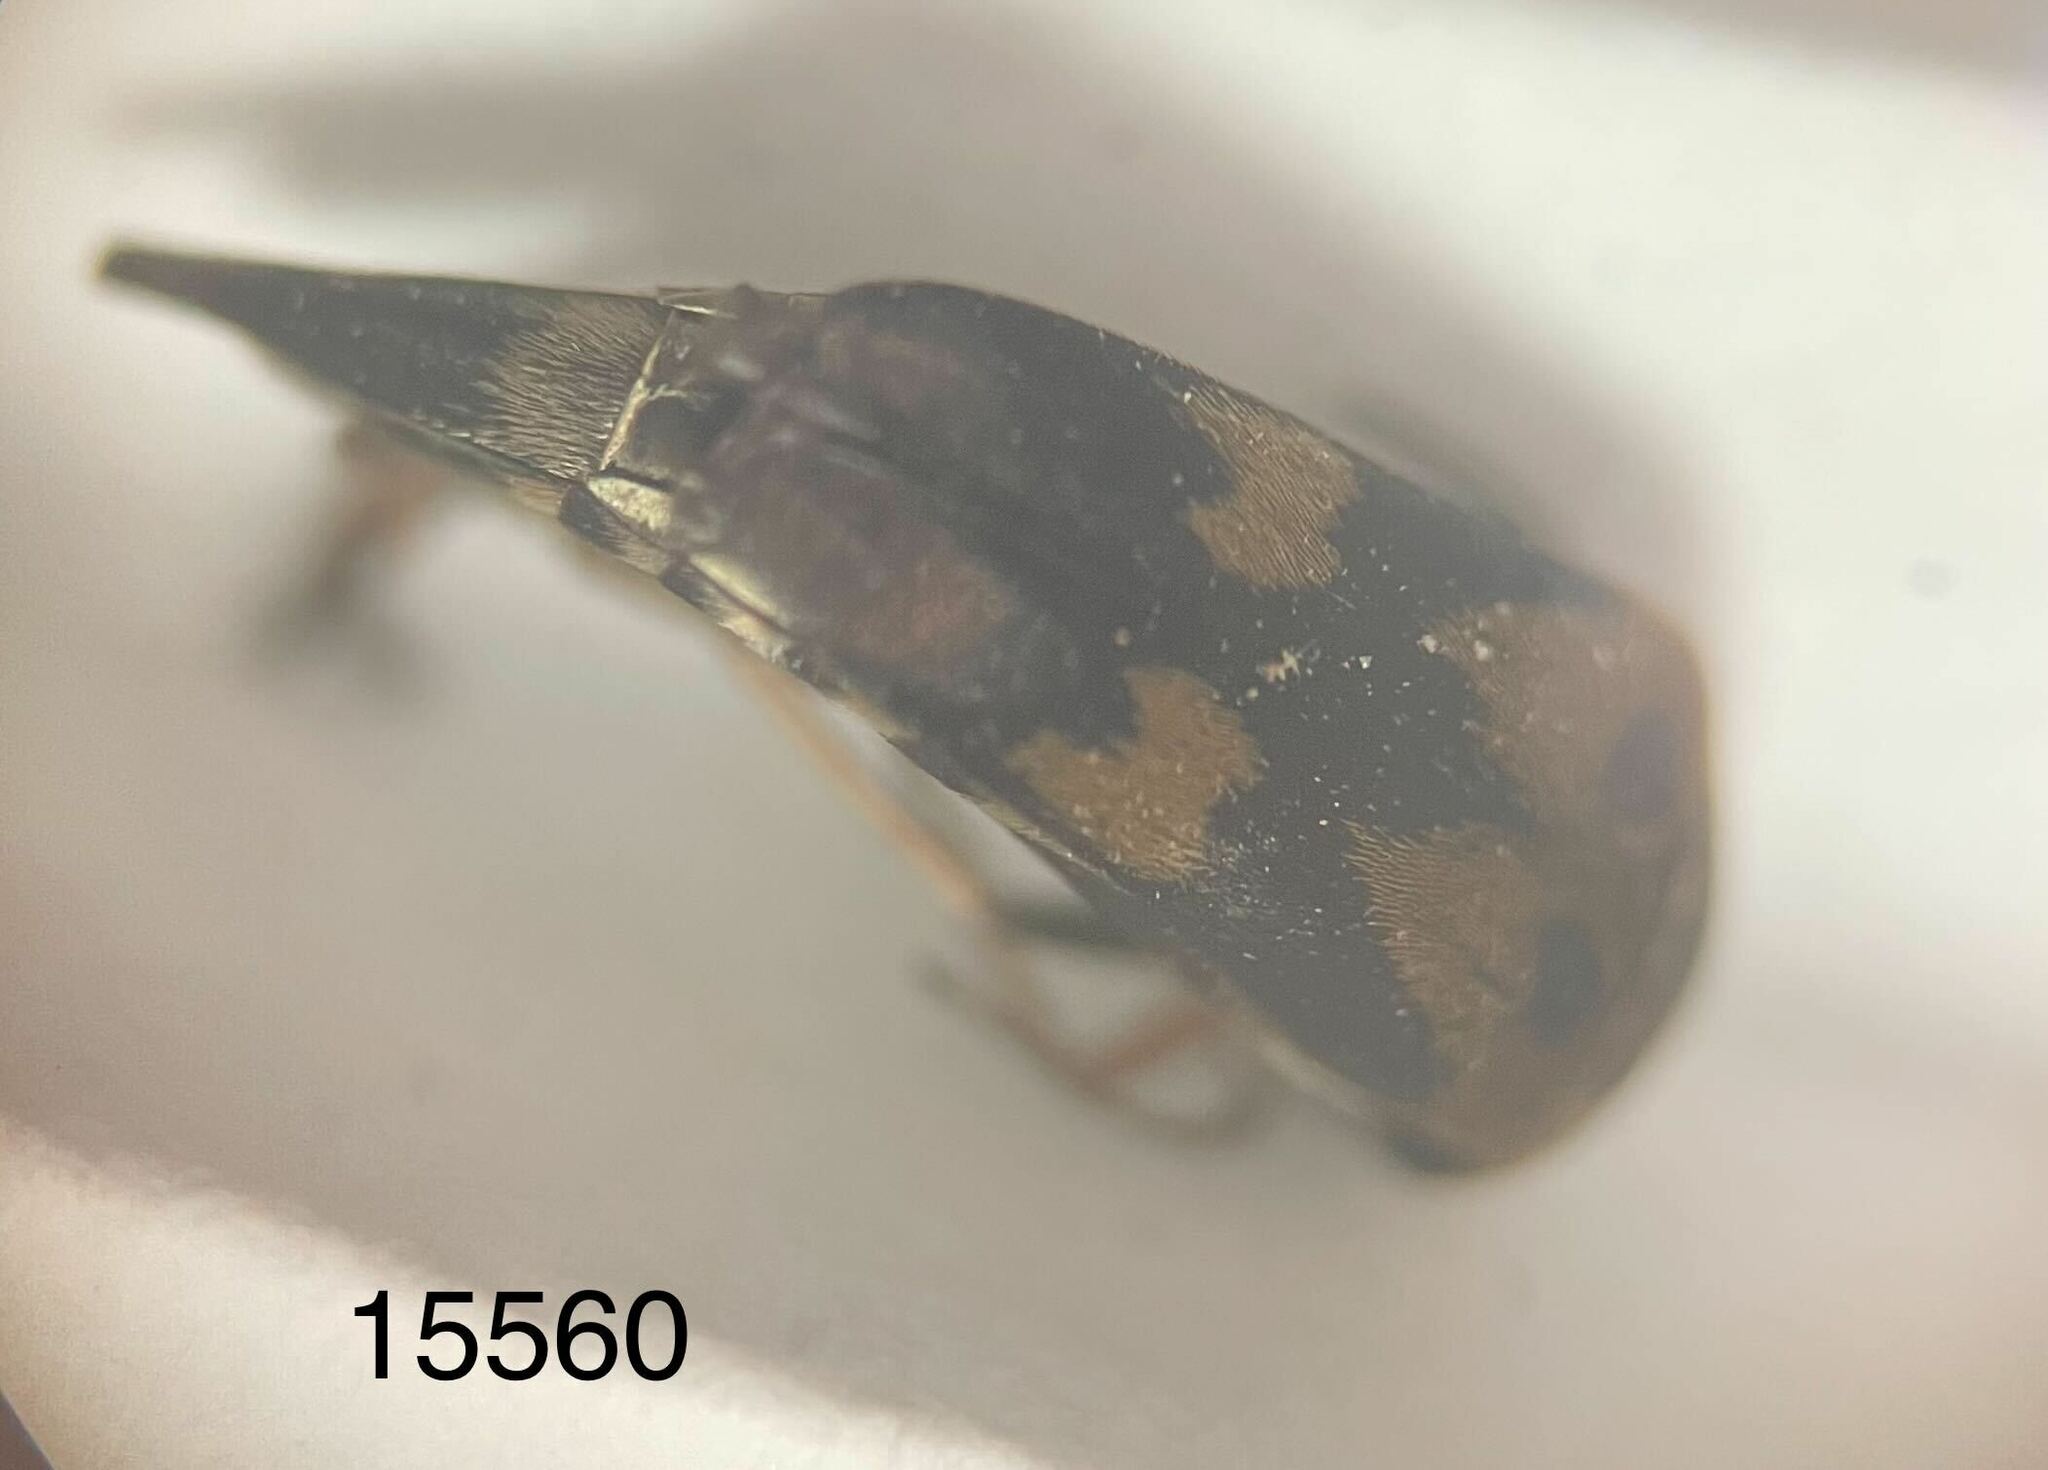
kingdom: Animalia
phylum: Arthropoda
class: Insecta
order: Coleoptera
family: Mordellidae
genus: Glipa
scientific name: Glipa oculata
